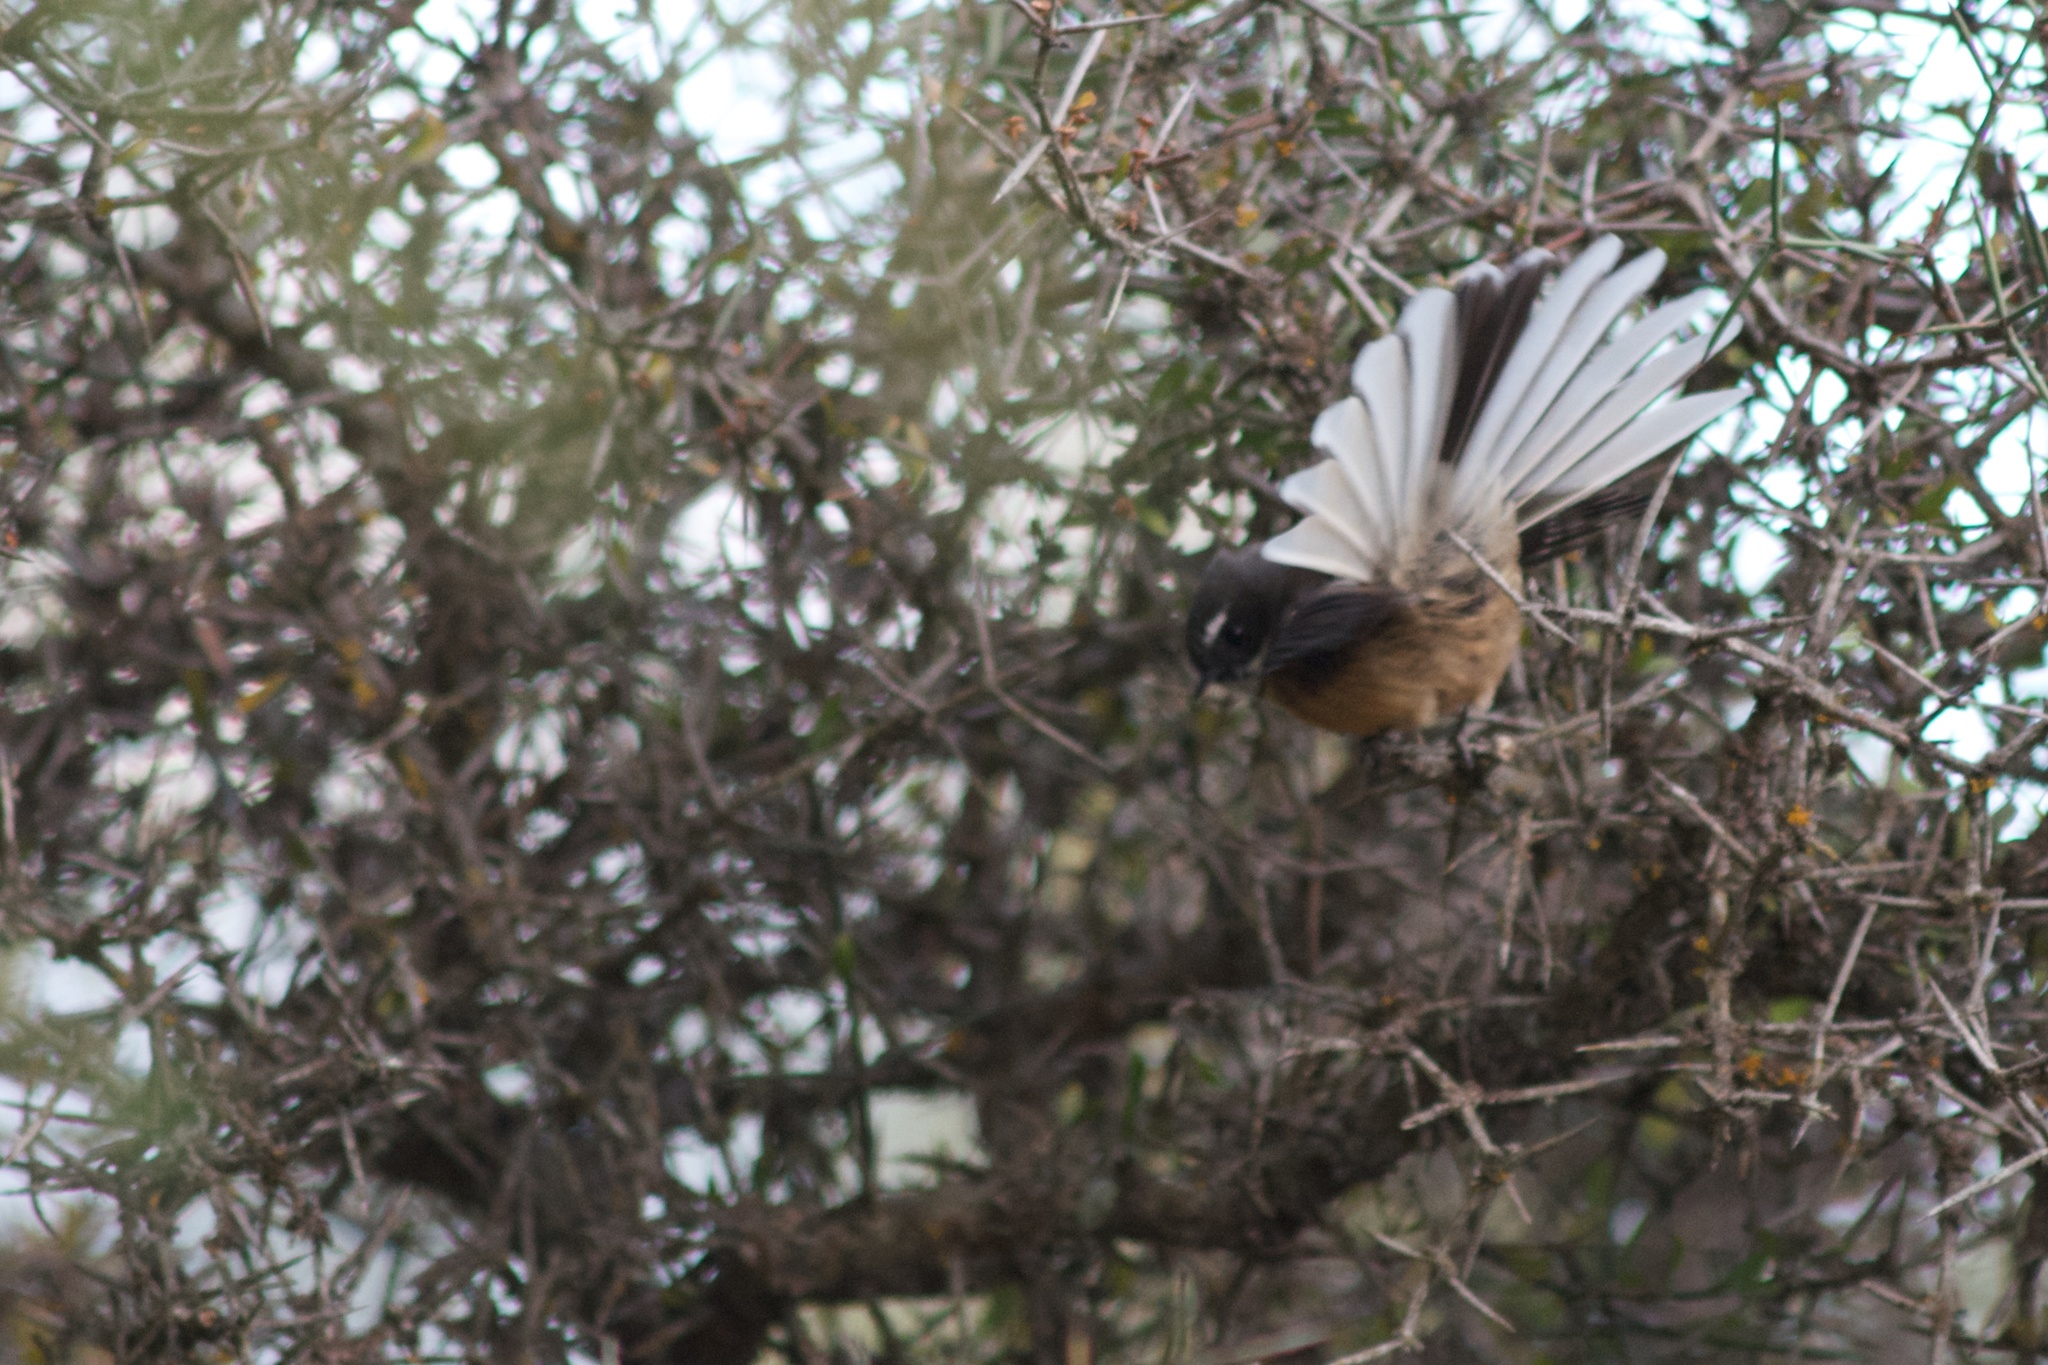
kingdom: Animalia
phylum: Chordata
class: Aves
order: Passeriformes
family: Rhipiduridae
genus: Rhipidura
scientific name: Rhipidura fuliginosa
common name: New zealand fantail
